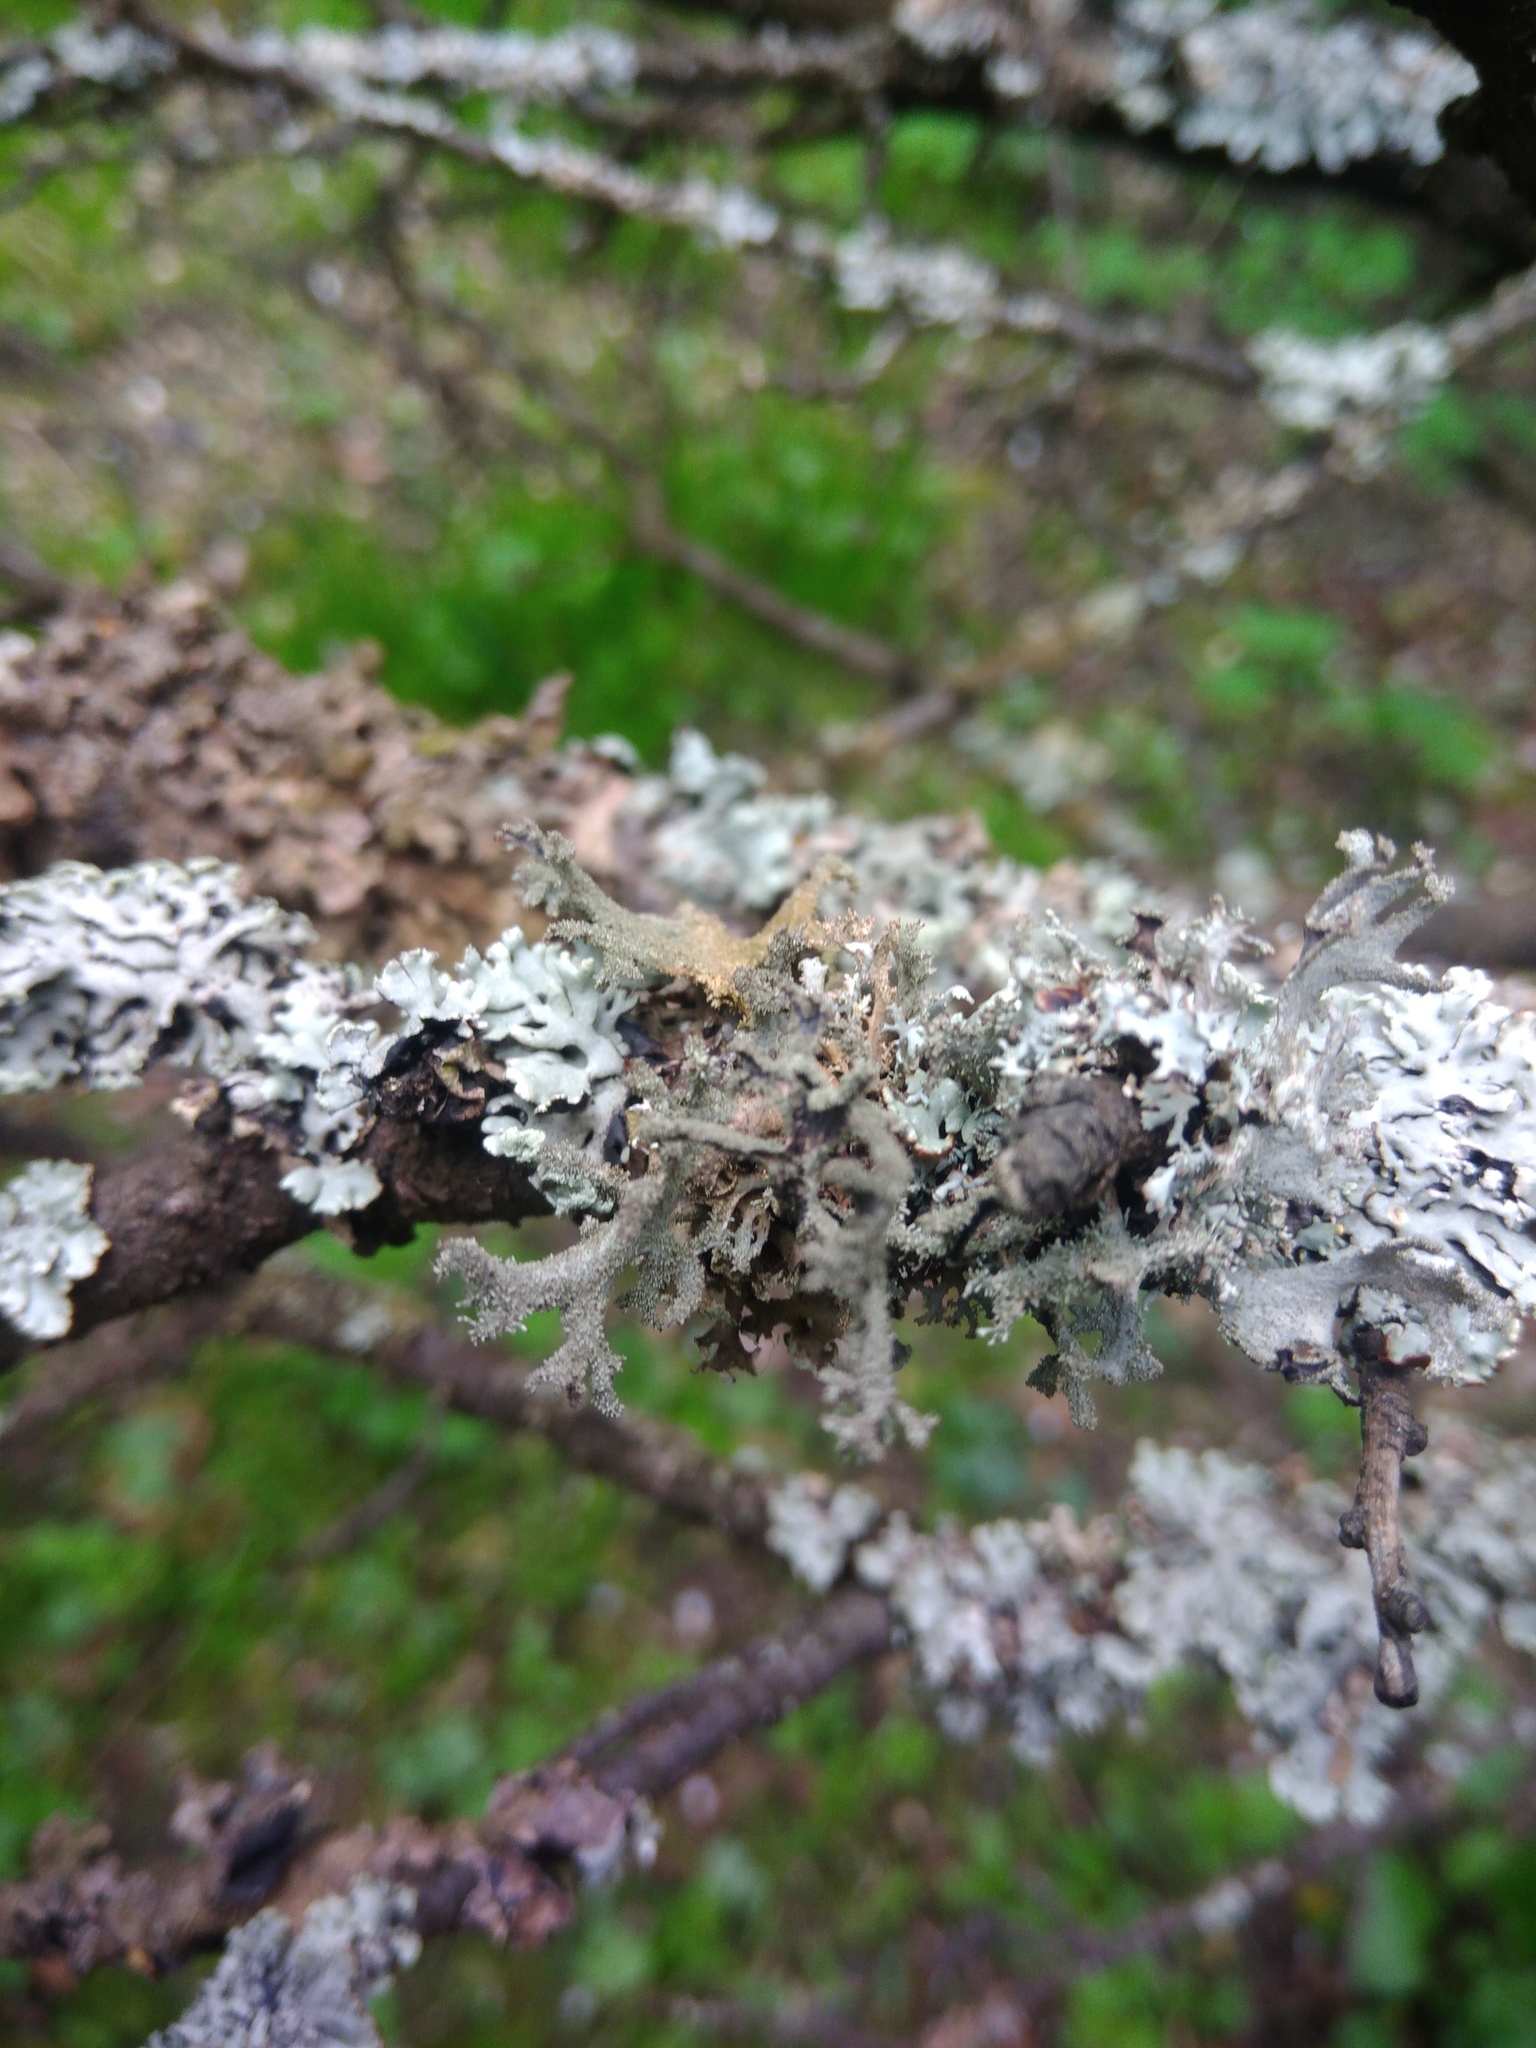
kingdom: Fungi
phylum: Ascomycota
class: Lecanoromycetes
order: Lecanorales
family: Parmeliaceae
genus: Pseudevernia
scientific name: Pseudevernia furfuracea
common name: Tree moss
